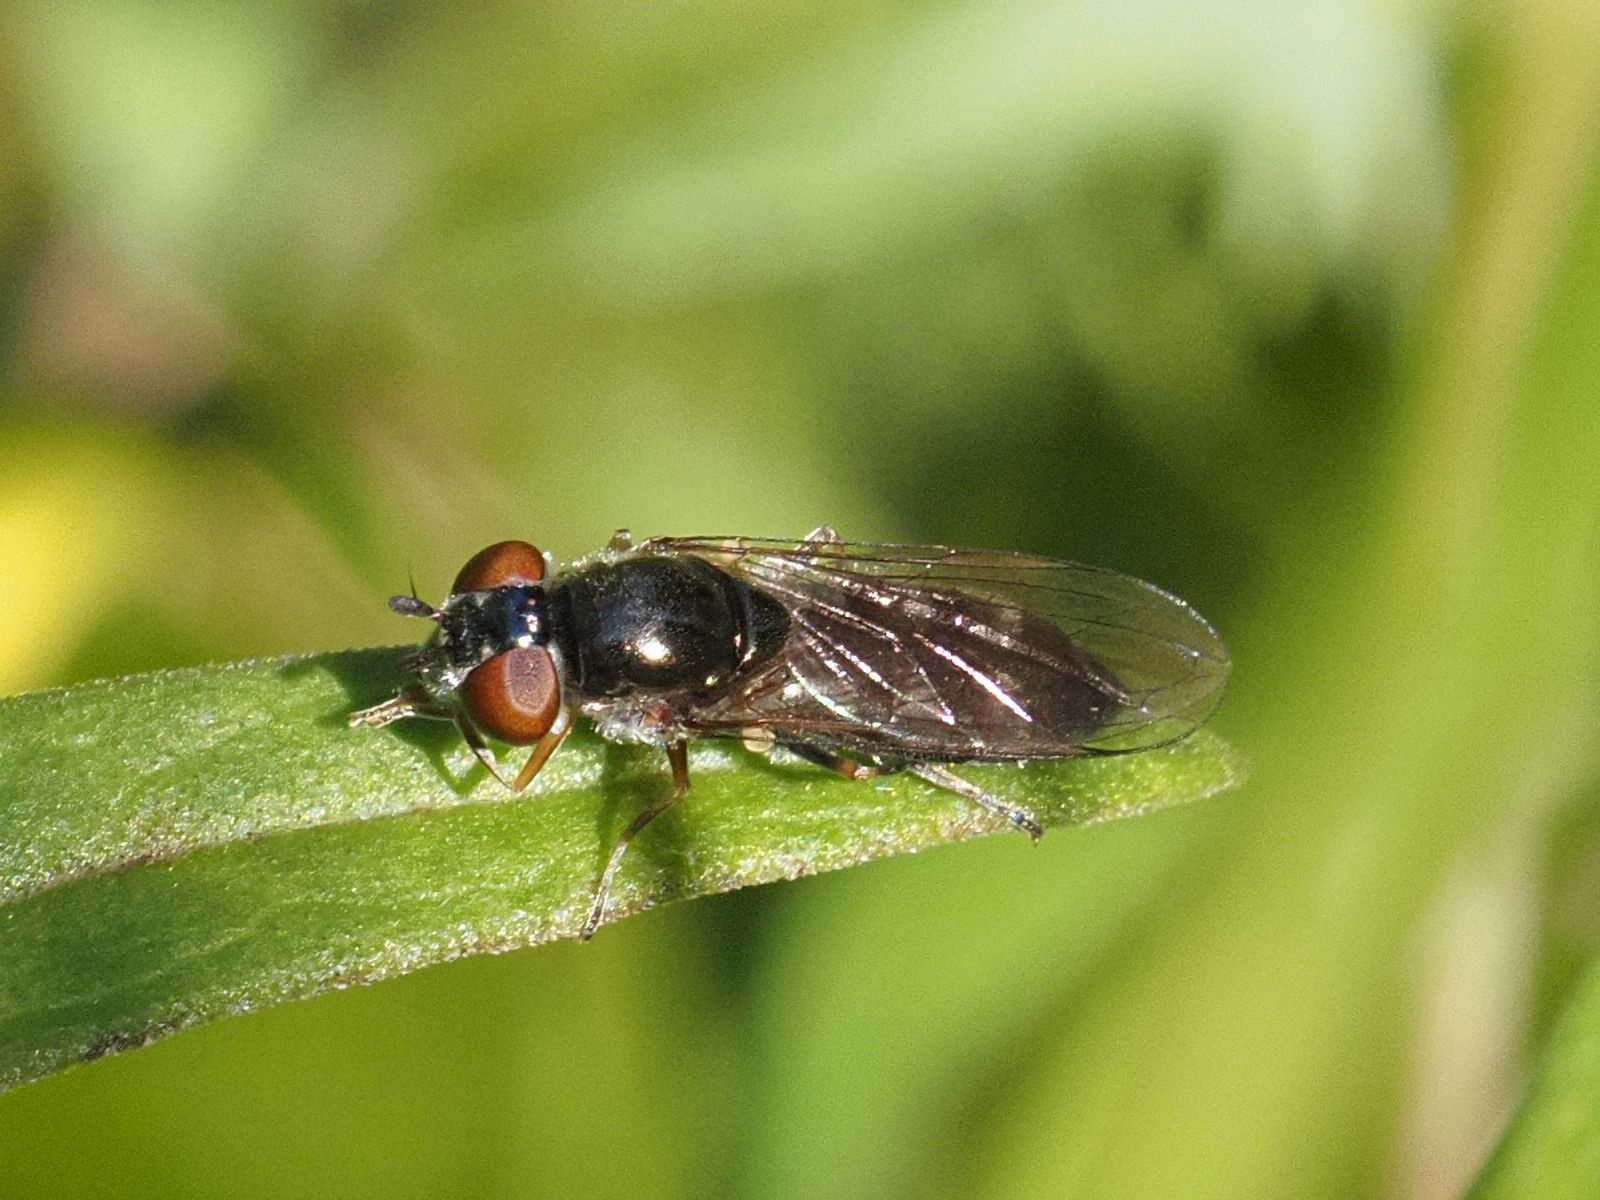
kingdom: Animalia
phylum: Arthropoda
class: Insecta
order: Diptera
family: Syrphidae
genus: Platycheirus
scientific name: Platycheirus albimanus
